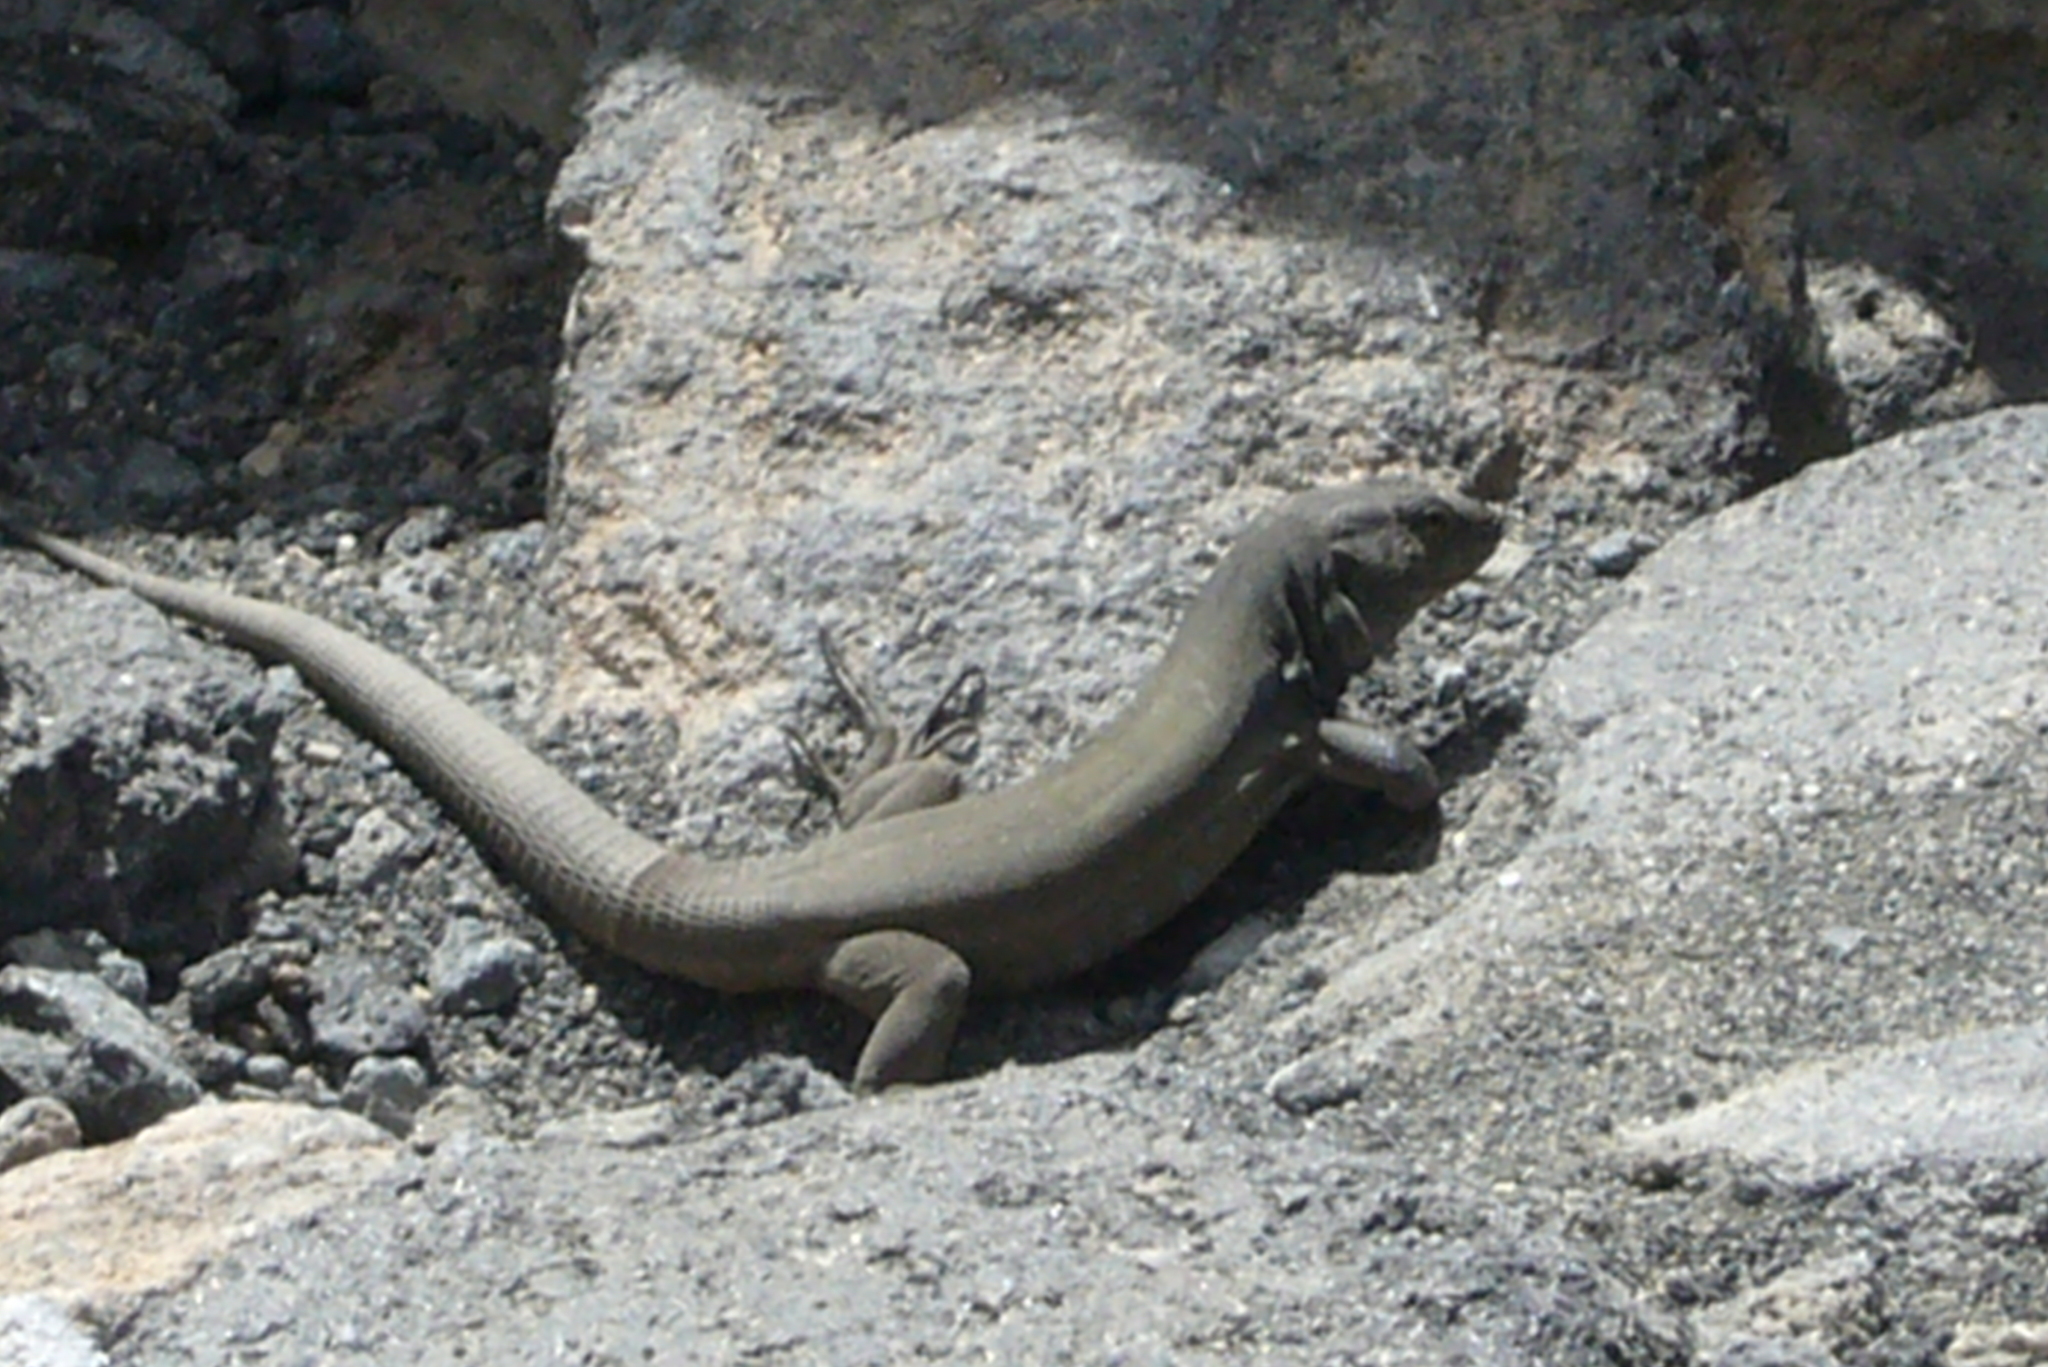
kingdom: Animalia
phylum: Chordata
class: Squamata
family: Lacertidae
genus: Gallotia
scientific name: Gallotia galloti
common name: Gallot's lizard
